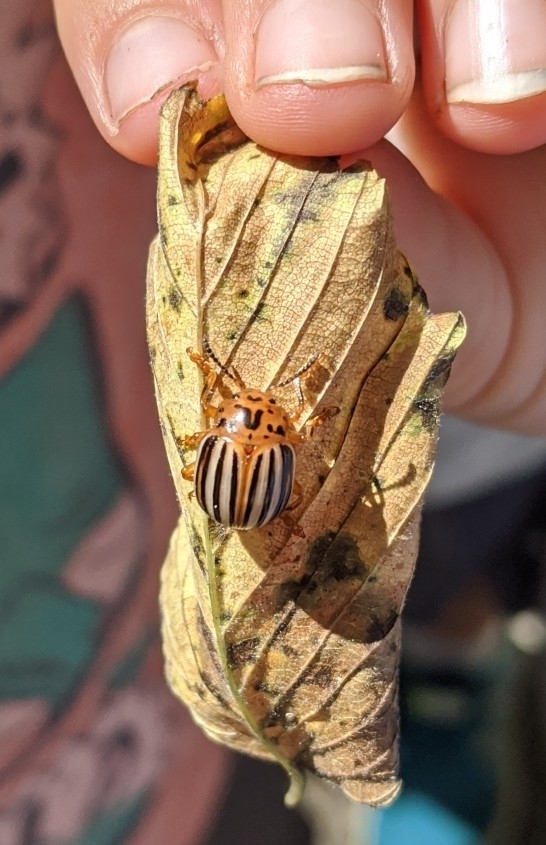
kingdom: Animalia
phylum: Arthropoda
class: Insecta
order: Coleoptera
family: Chrysomelidae
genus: Leptinotarsa
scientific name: Leptinotarsa juncta
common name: False potato beetle
